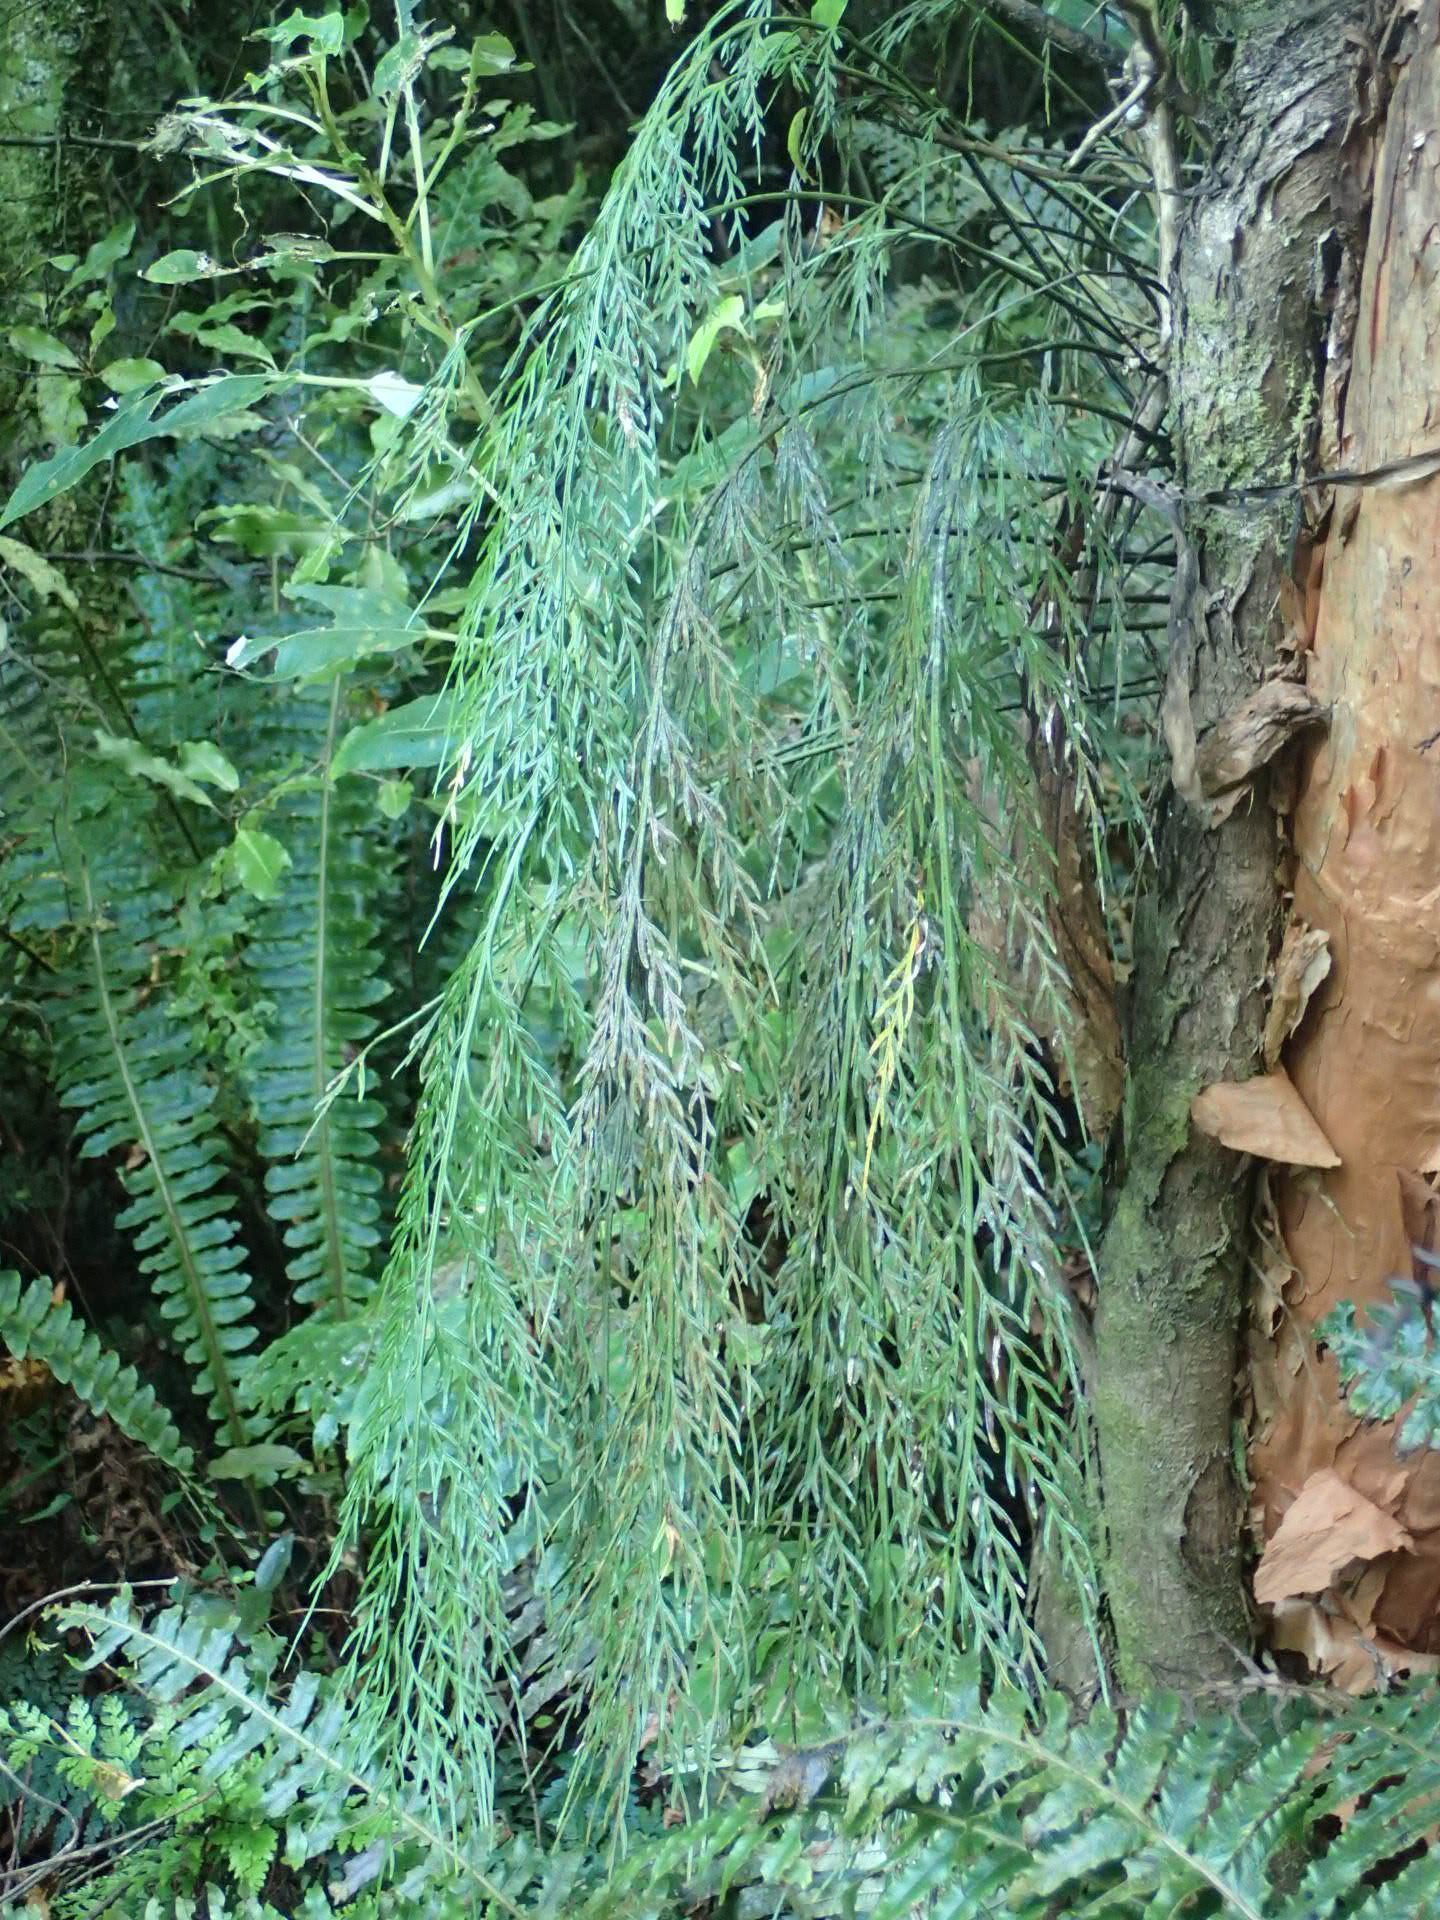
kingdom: Plantae
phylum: Tracheophyta
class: Polypodiopsida
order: Polypodiales
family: Aspleniaceae
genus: Asplenium
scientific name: Asplenium flaccidum
